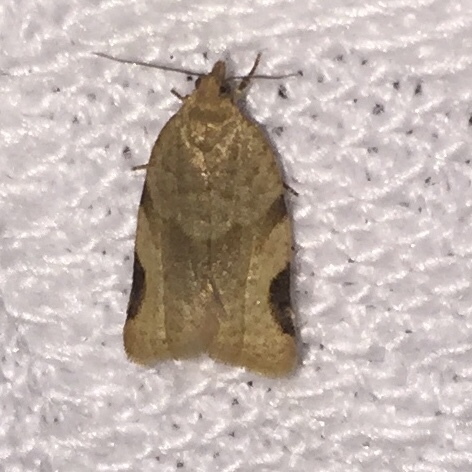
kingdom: Animalia
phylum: Arthropoda
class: Insecta
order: Lepidoptera
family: Tortricidae
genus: Clepsis
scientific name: Clepsis virescana
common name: Greenish apple moth
